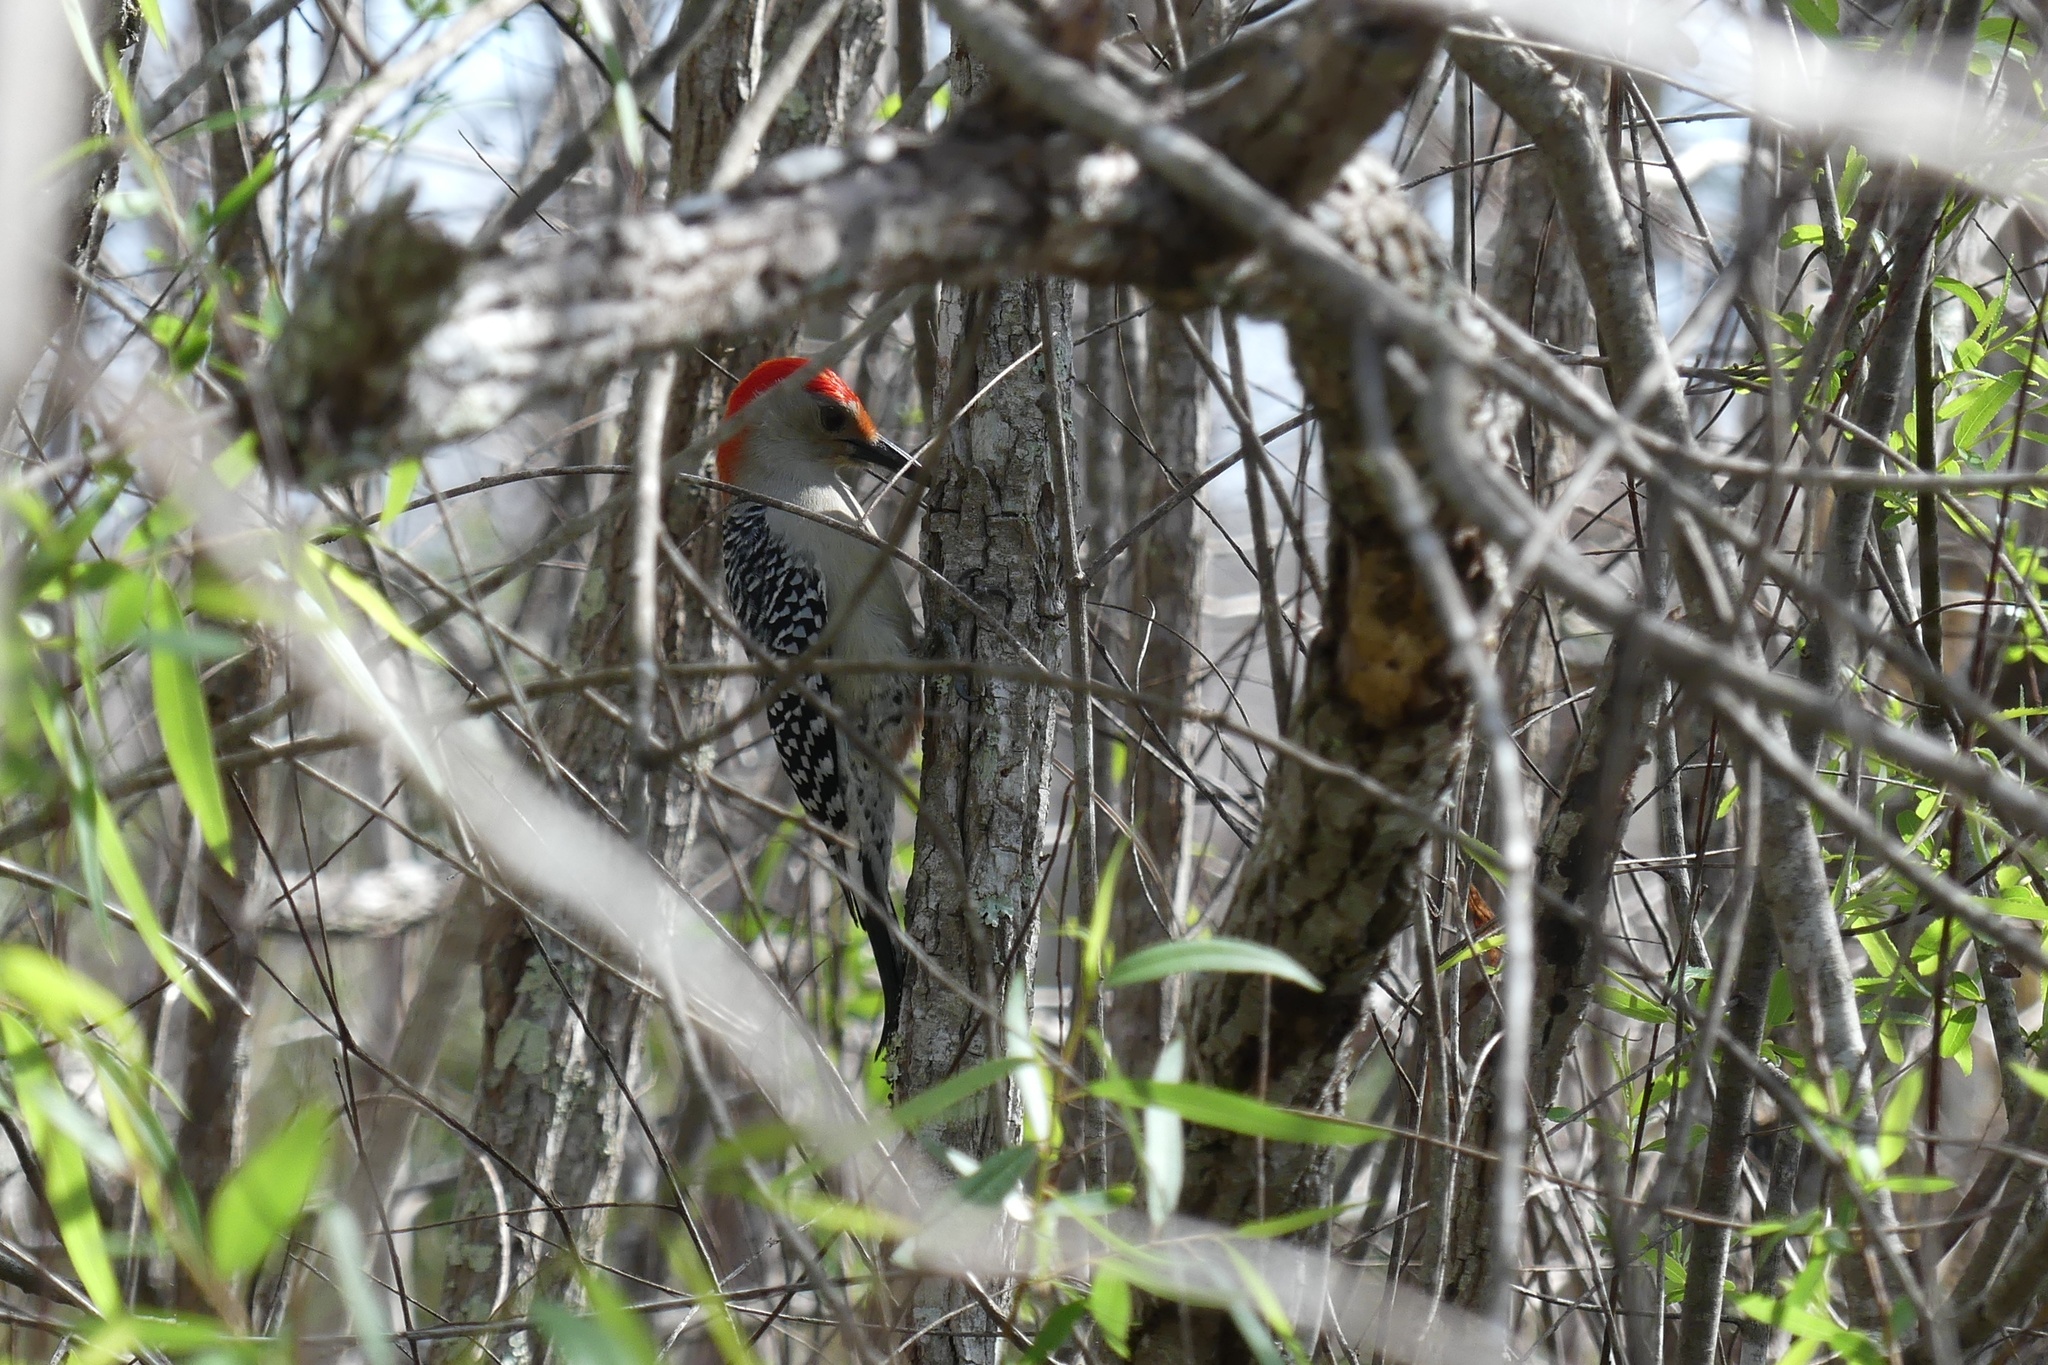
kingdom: Animalia
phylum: Chordata
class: Aves
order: Piciformes
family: Picidae
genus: Melanerpes
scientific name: Melanerpes carolinus
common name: Red-bellied woodpecker
